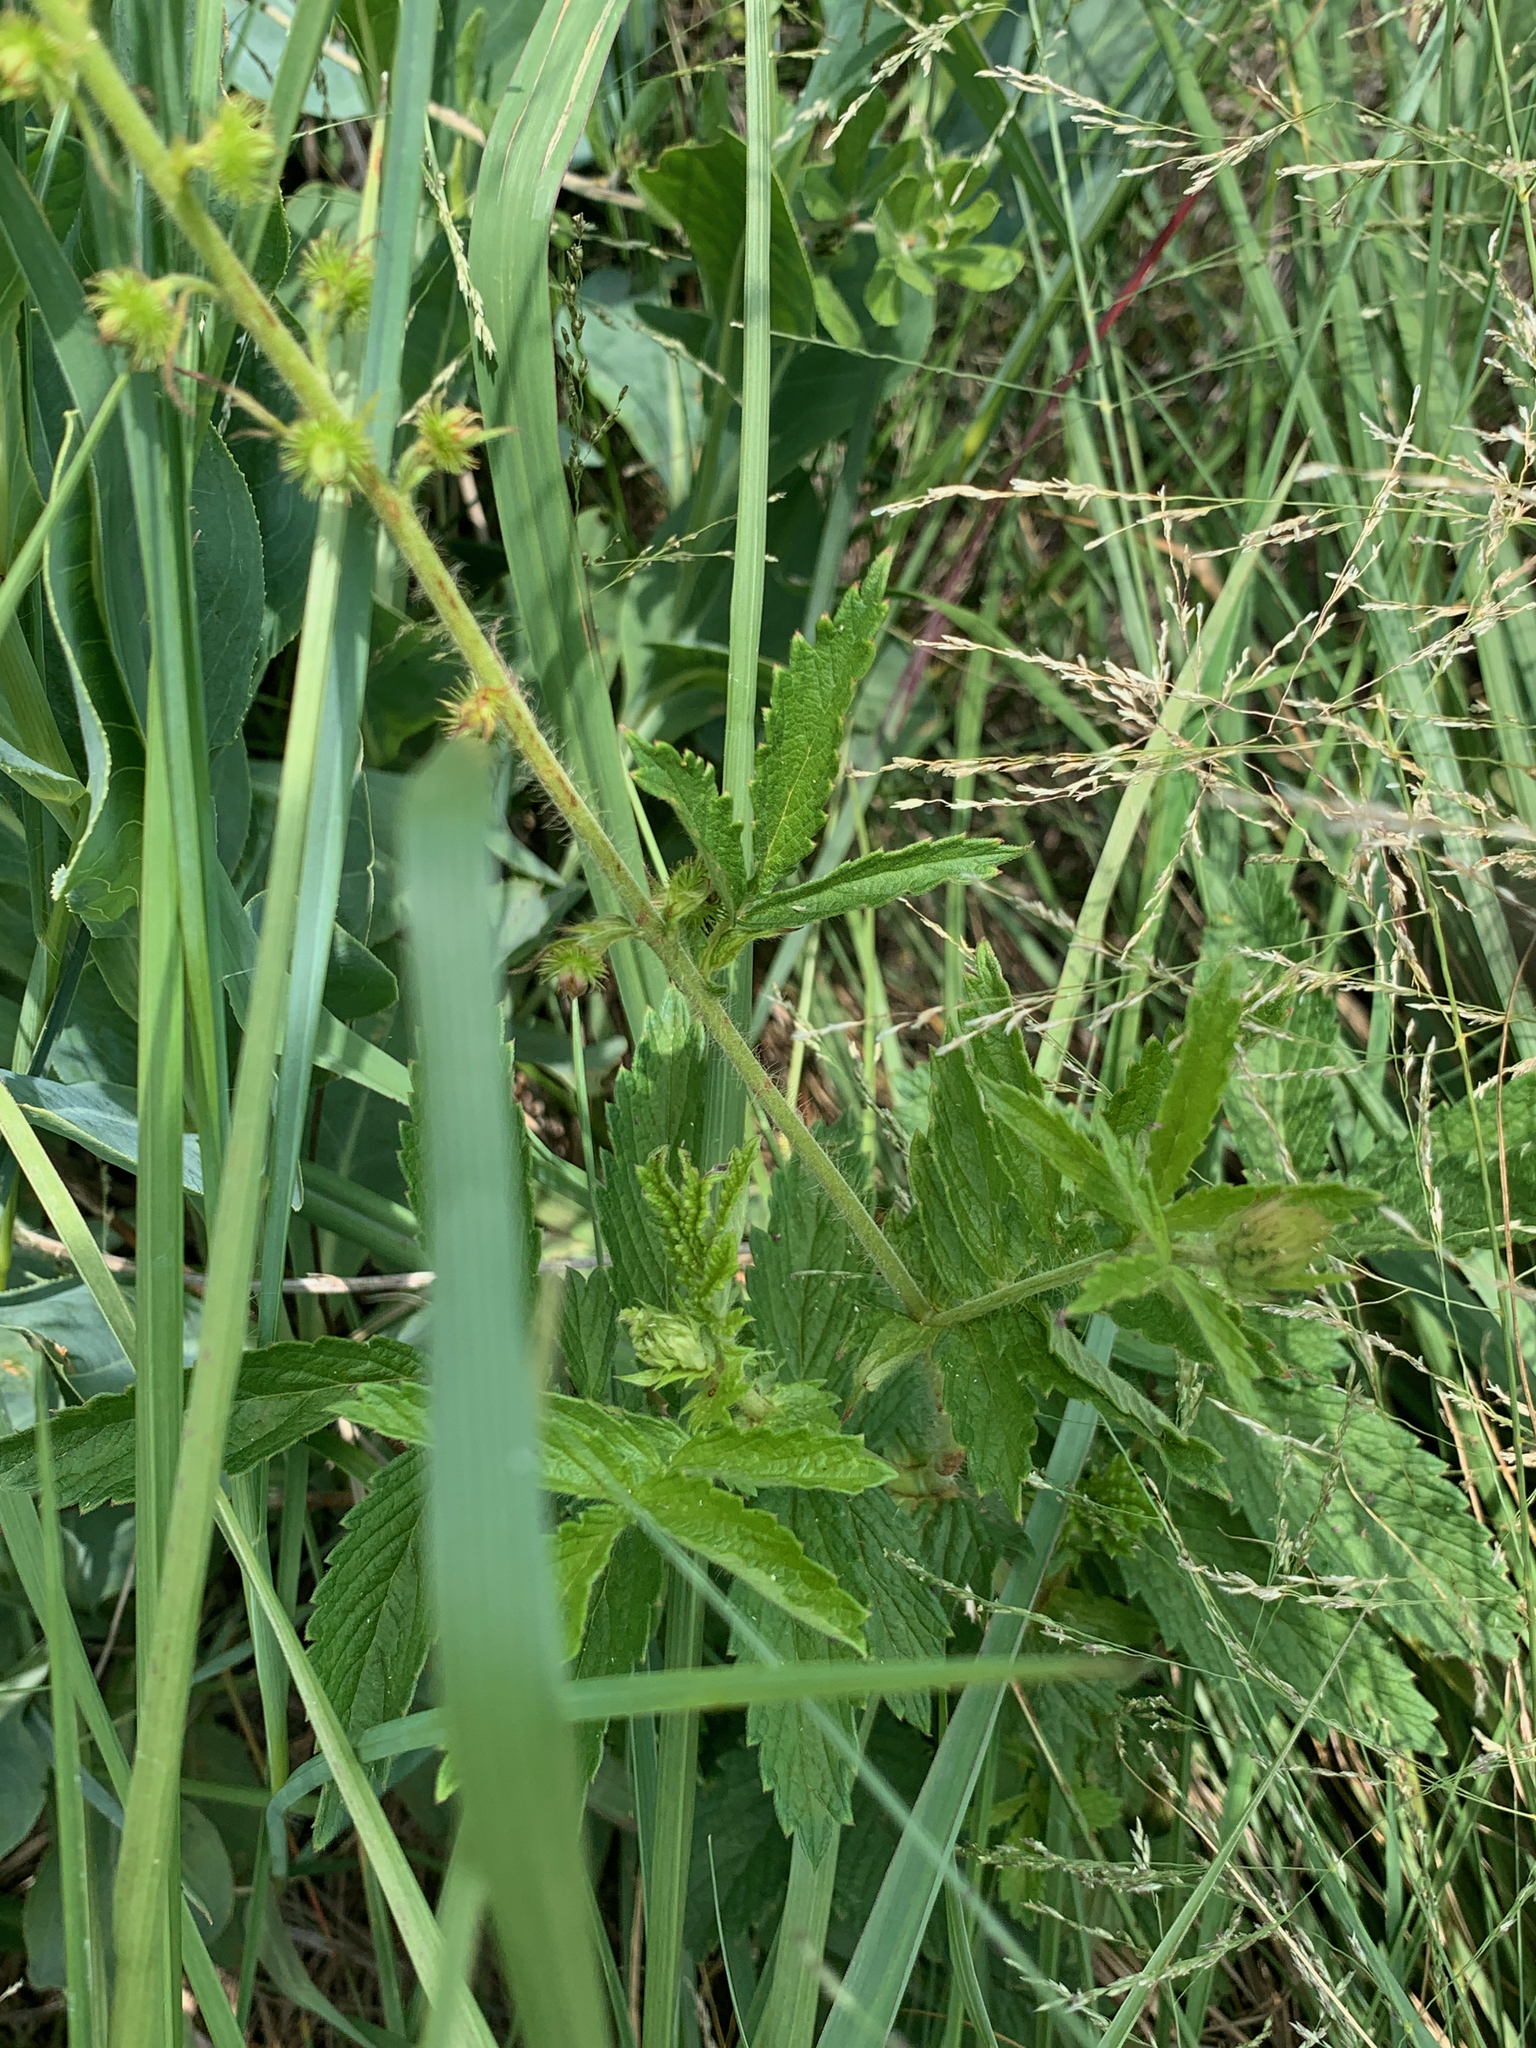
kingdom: Plantae
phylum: Tracheophyta
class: Magnoliopsida
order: Rosales
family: Rosaceae
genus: Agrimonia
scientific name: Agrimonia bracteata
